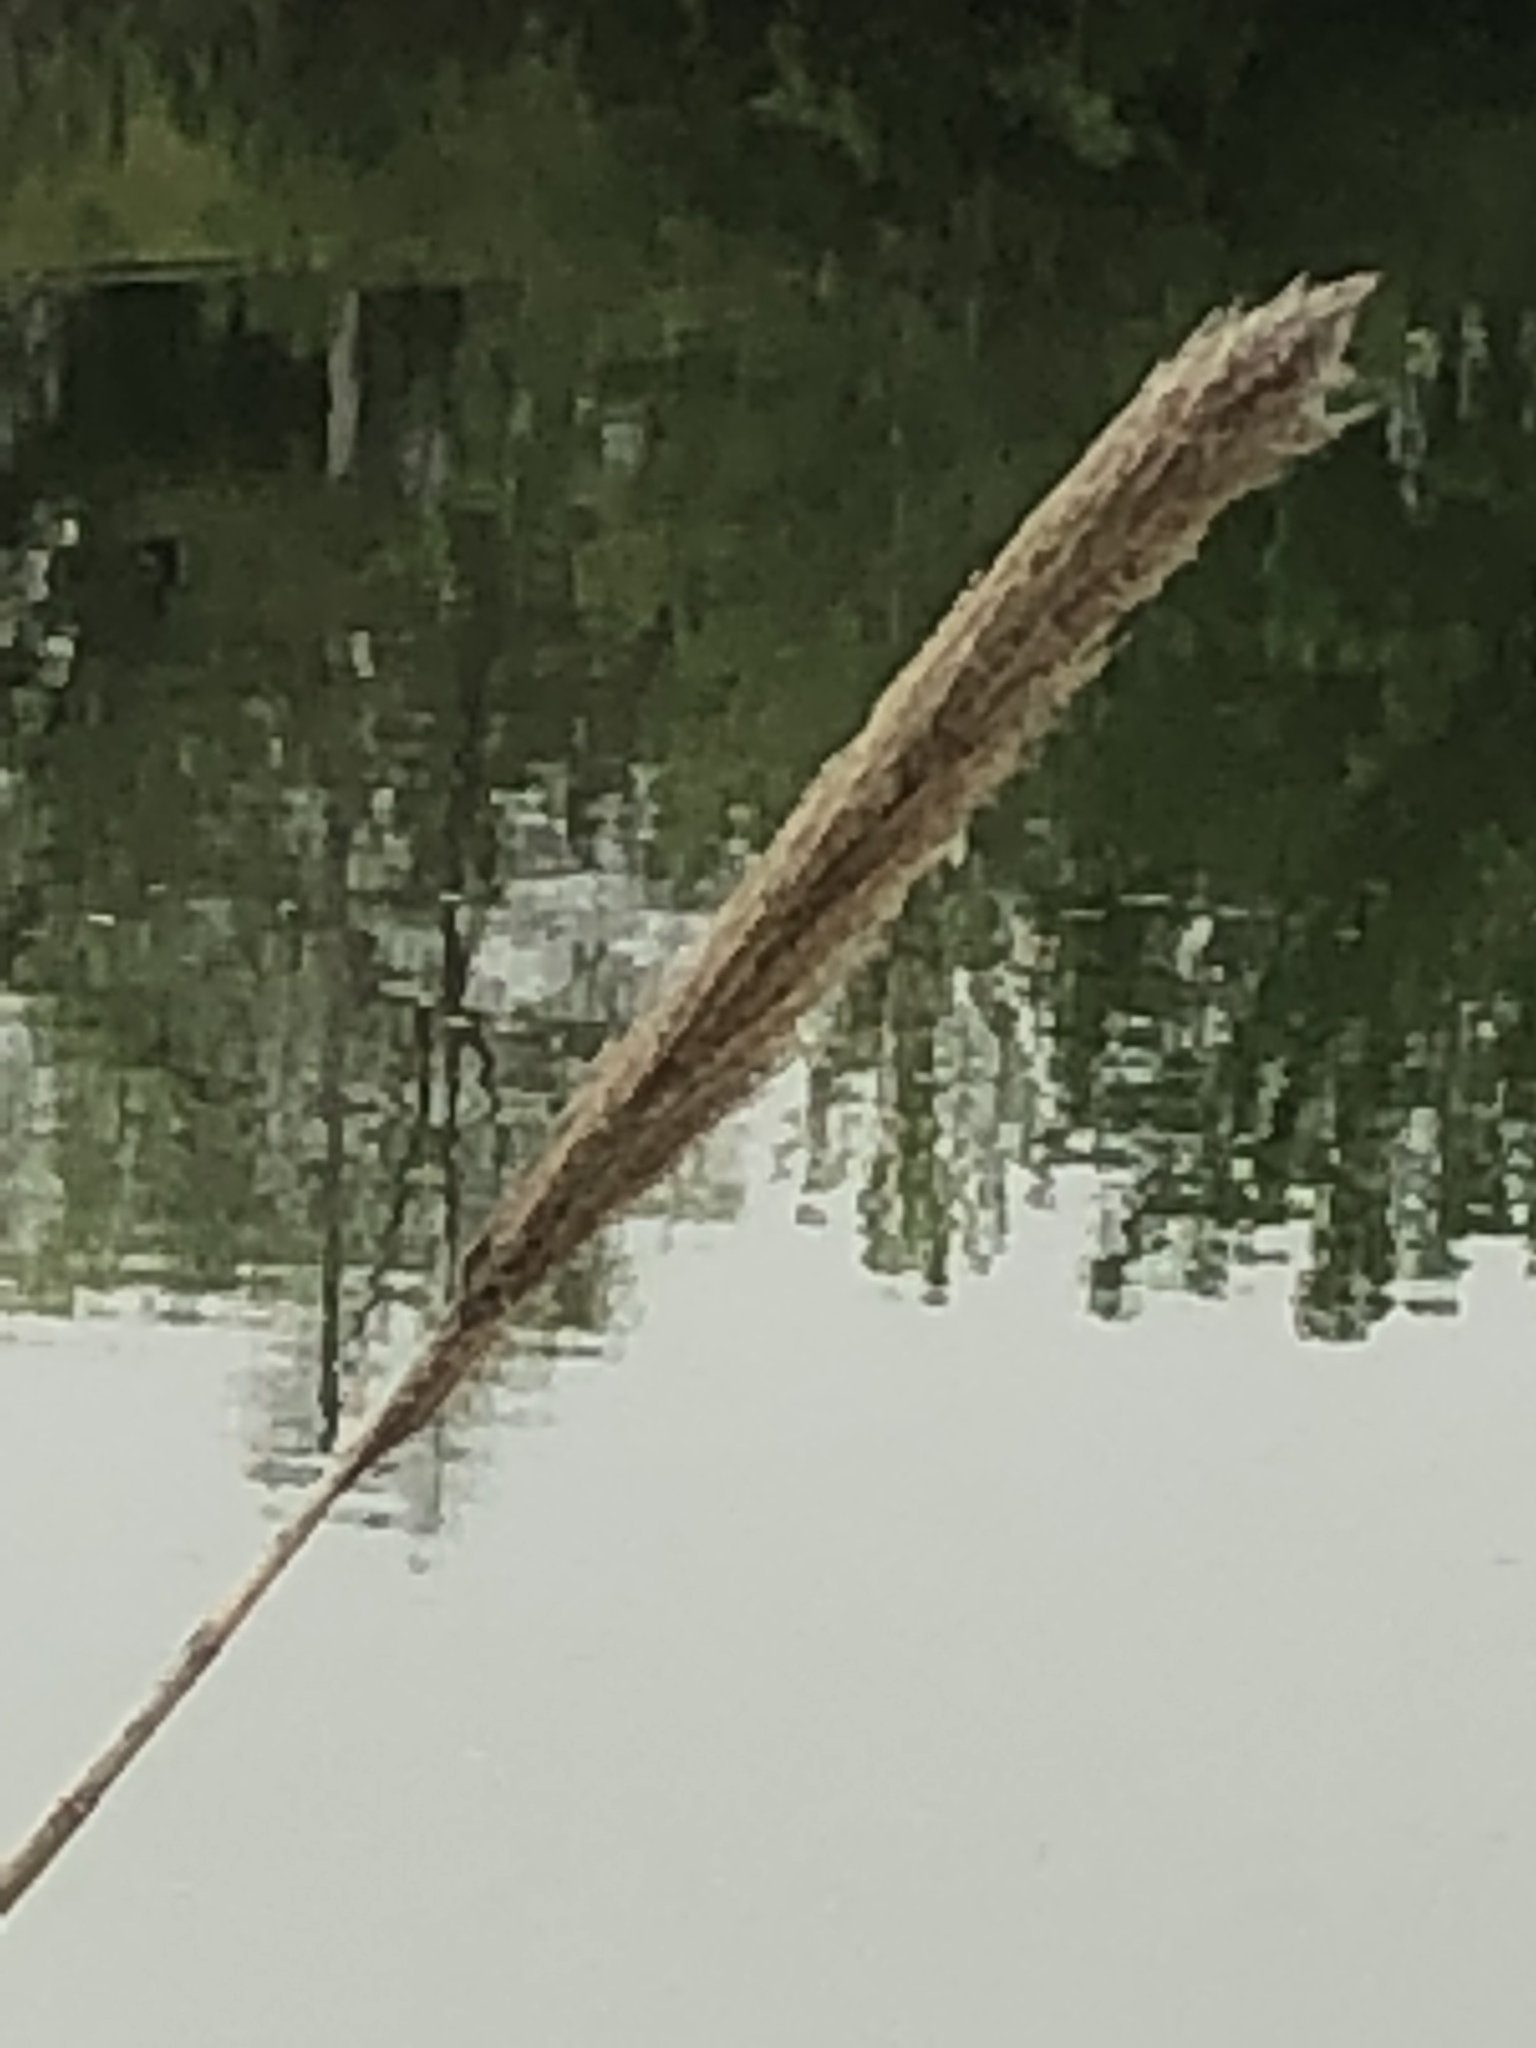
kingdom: Plantae
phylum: Tracheophyta
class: Liliopsida
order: Poales
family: Poaceae
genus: Arundo
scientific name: Arundo donax
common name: Giant reed
